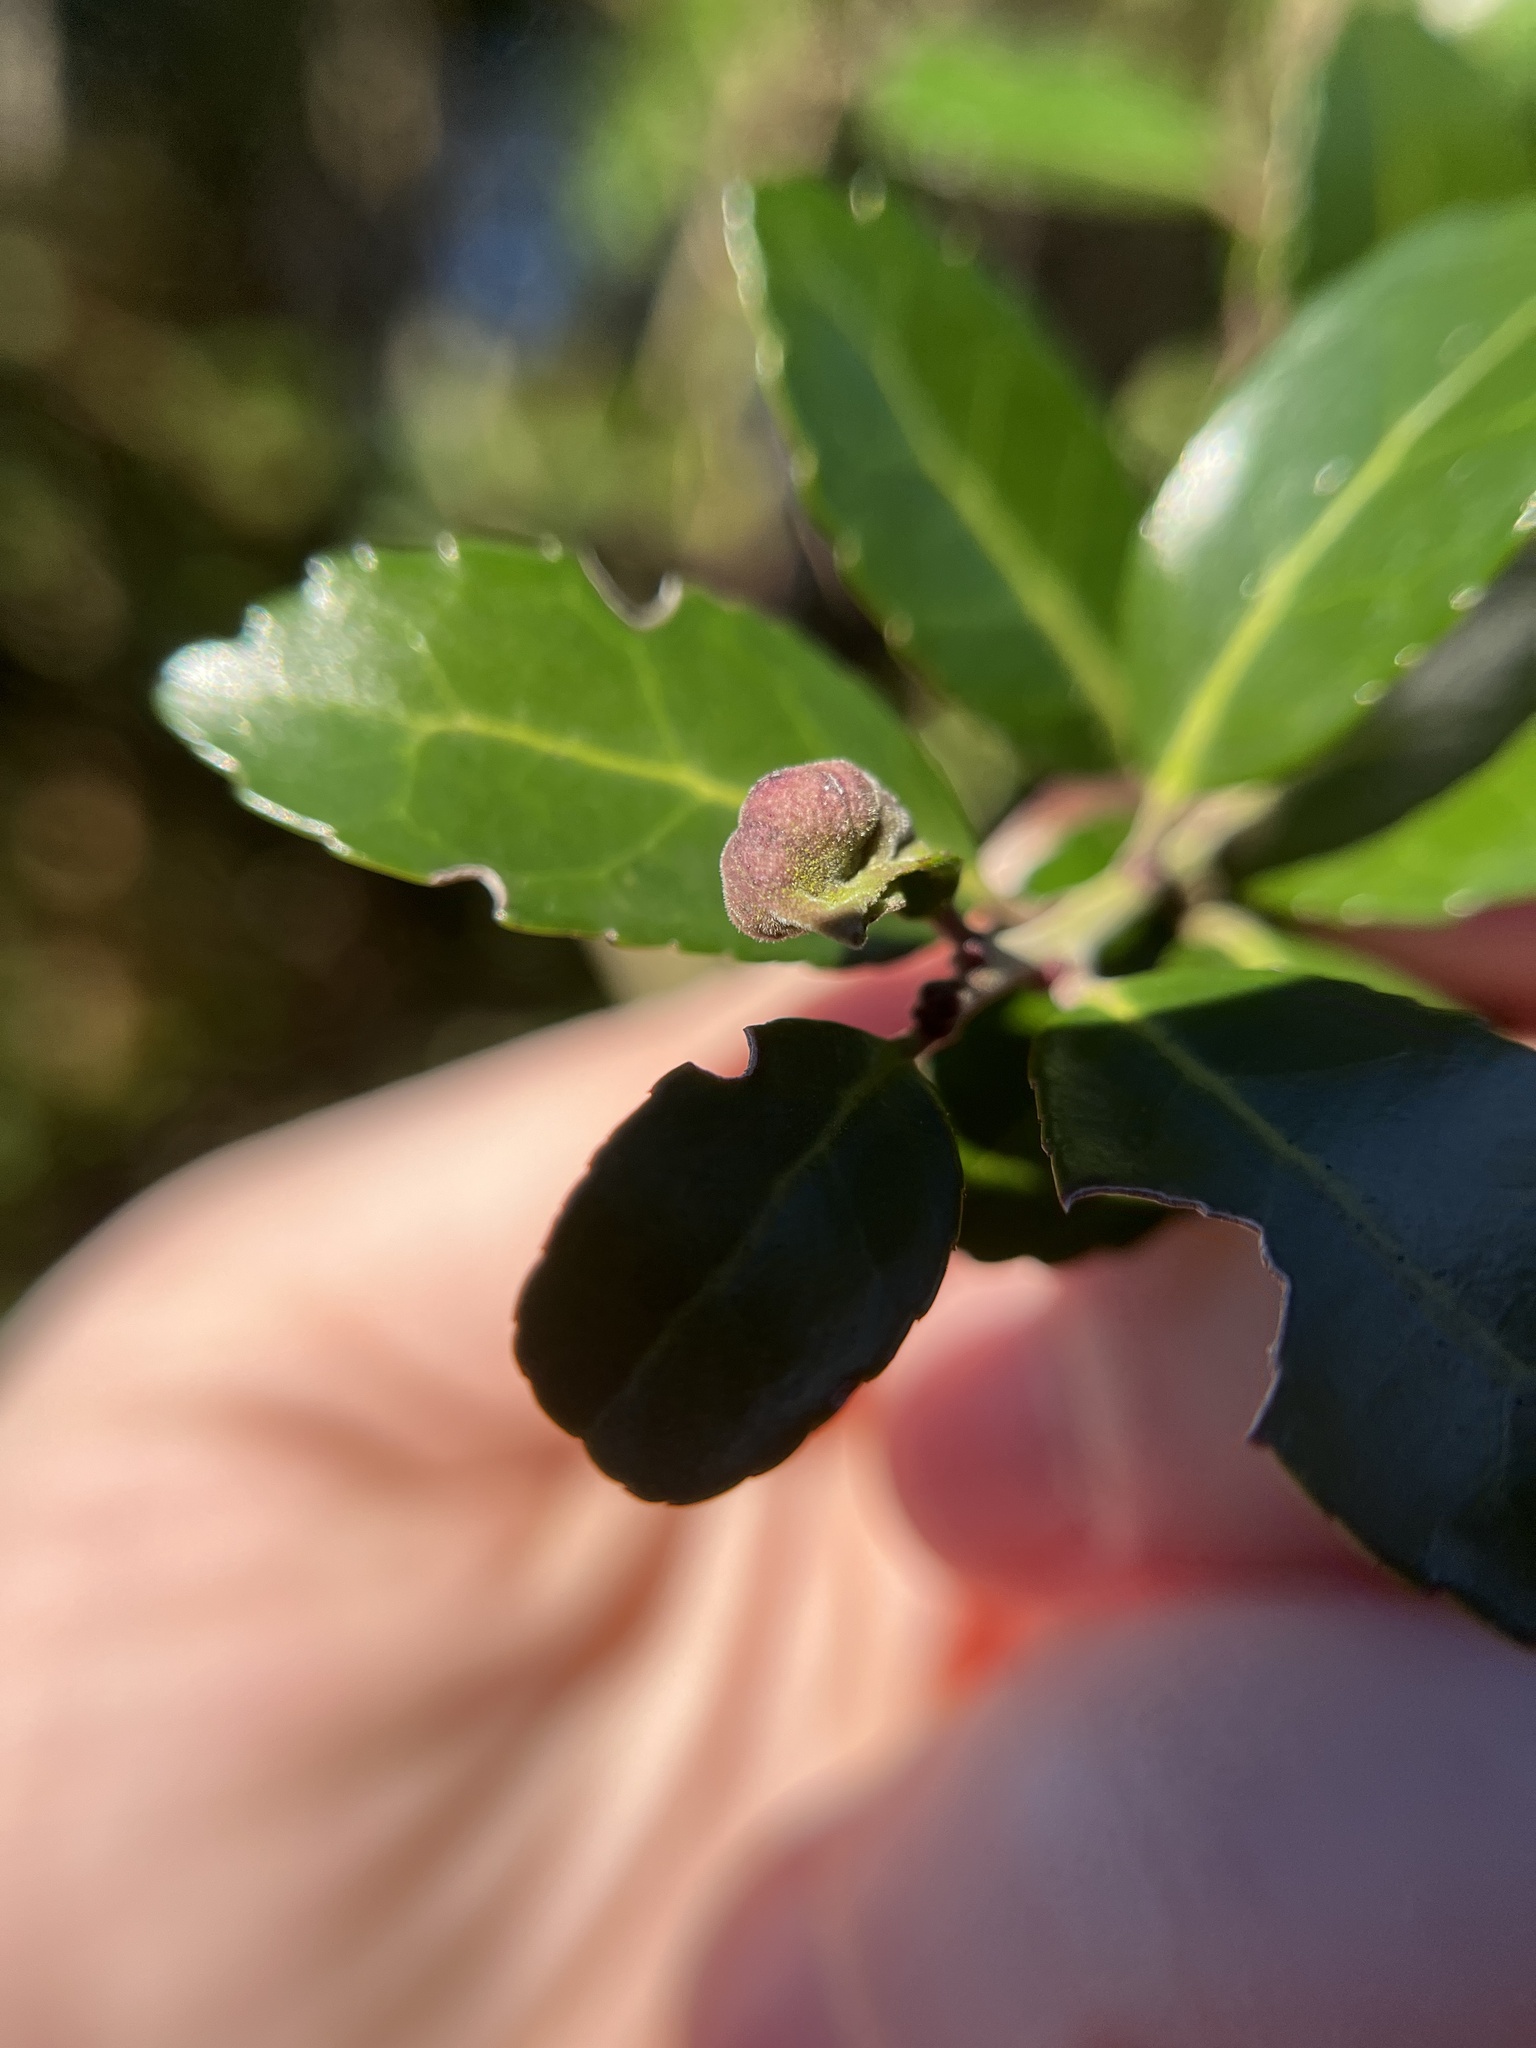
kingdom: Animalia
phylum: Arthropoda
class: Insecta
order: Hemiptera
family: Aphalaridae
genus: Gyropsylla
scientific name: Gyropsylla ilecis
